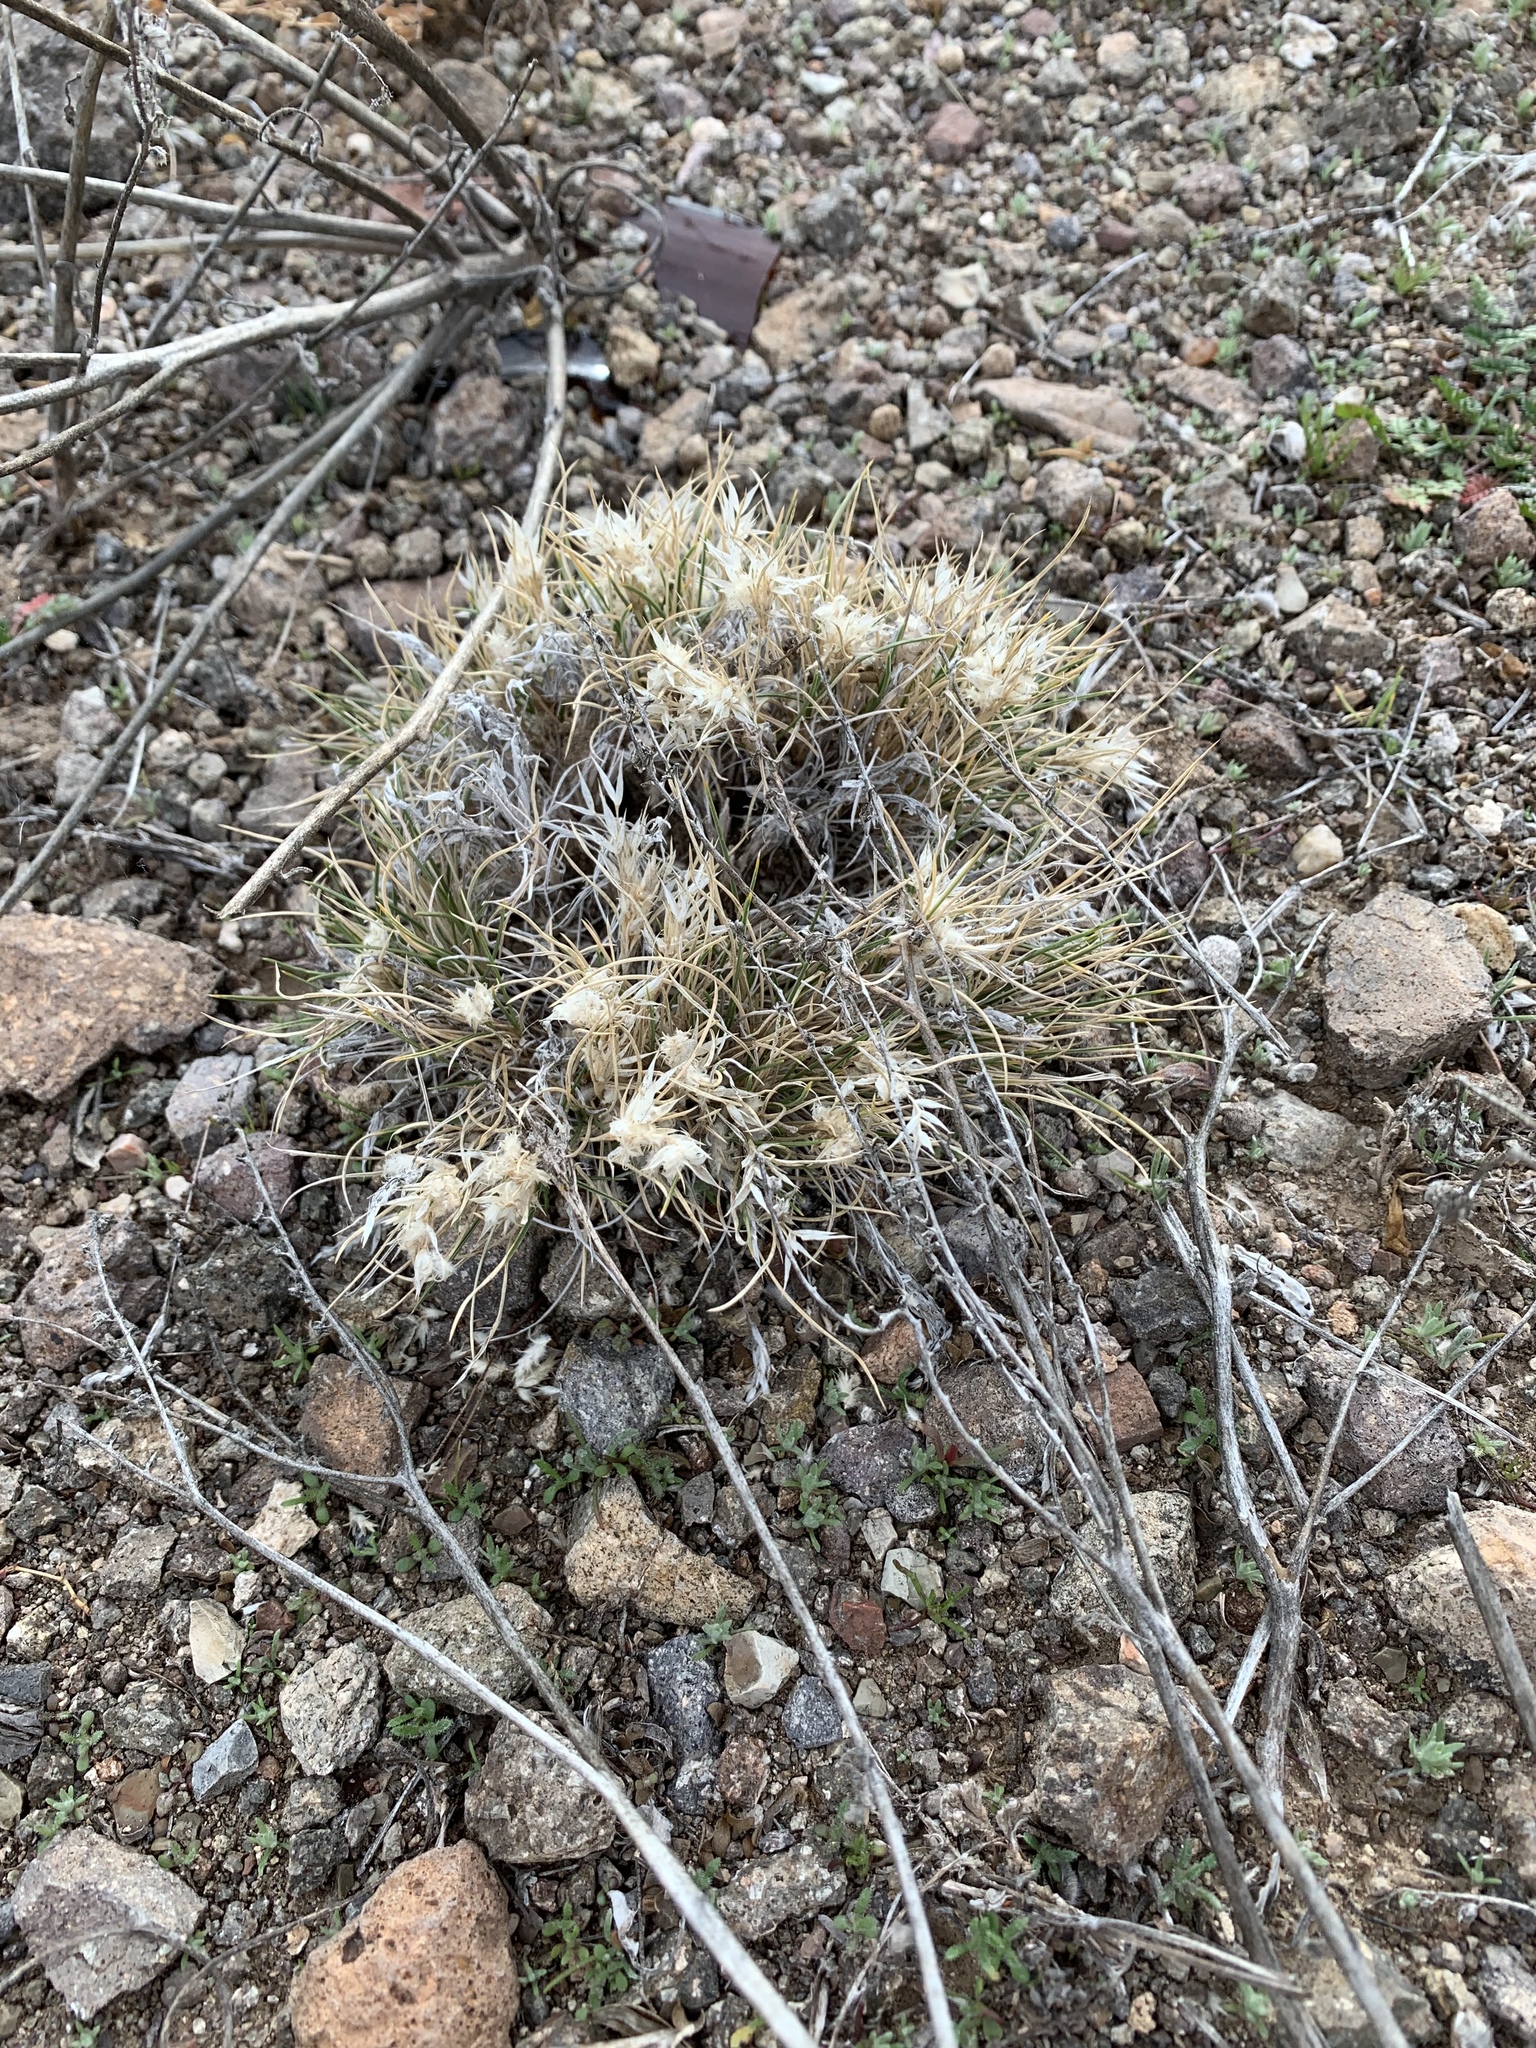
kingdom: Plantae
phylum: Tracheophyta
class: Liliopsida
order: Poales
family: Poaceae
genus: Dasyochloa
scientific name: Dasyochloa pulchella
